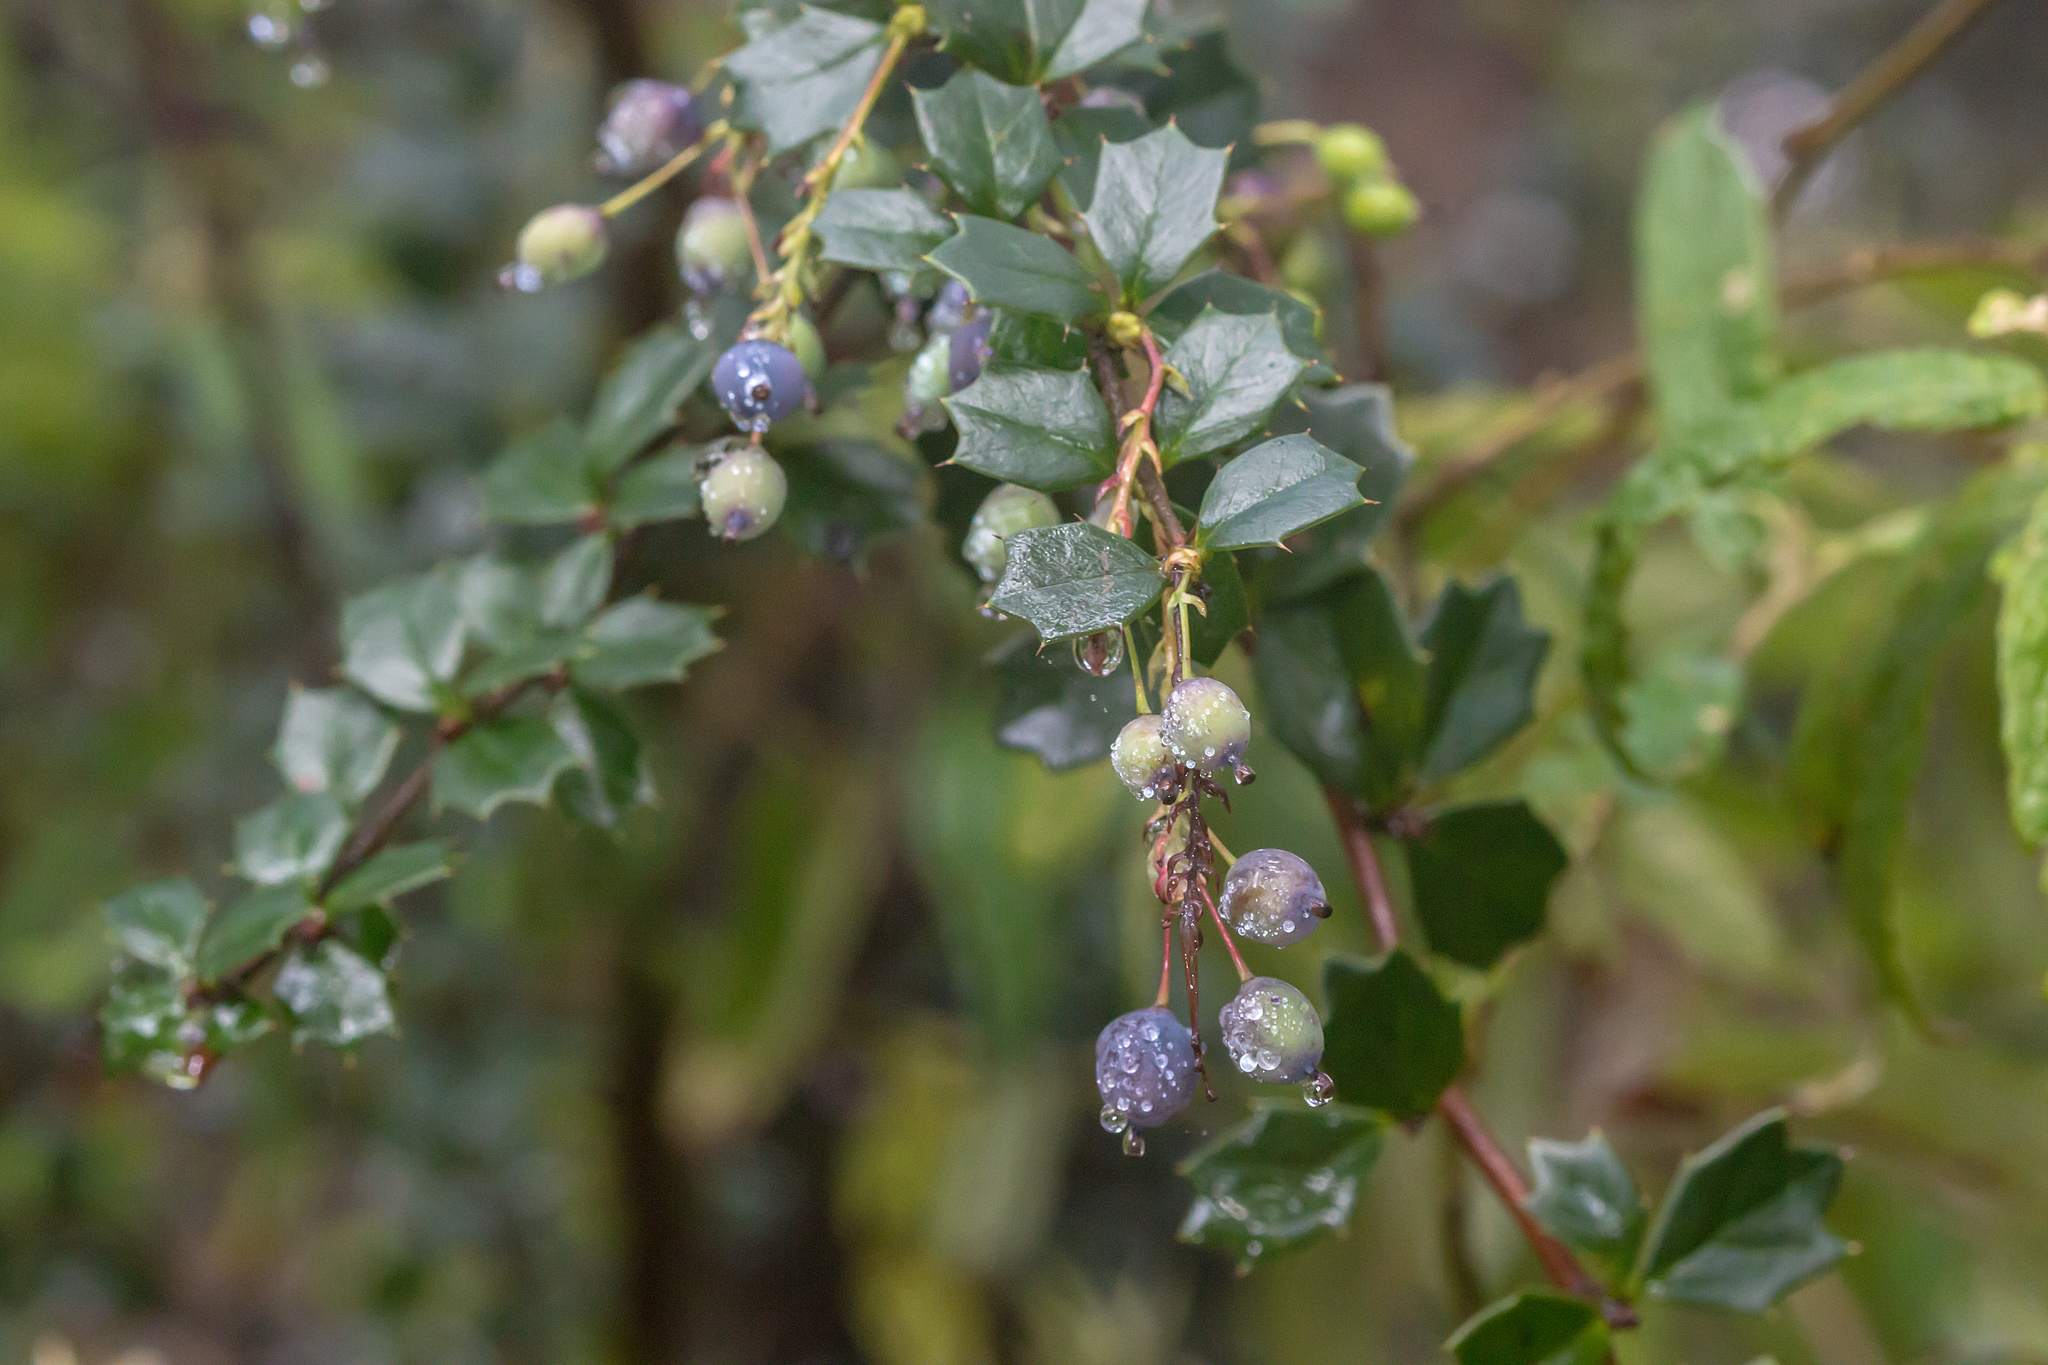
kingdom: Plantae
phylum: Tracheophyta
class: Magnoliopsida
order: Ranunculales
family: Berberidaceae
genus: Berberis
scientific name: Berberis darwinii
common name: Darwin's barberry
